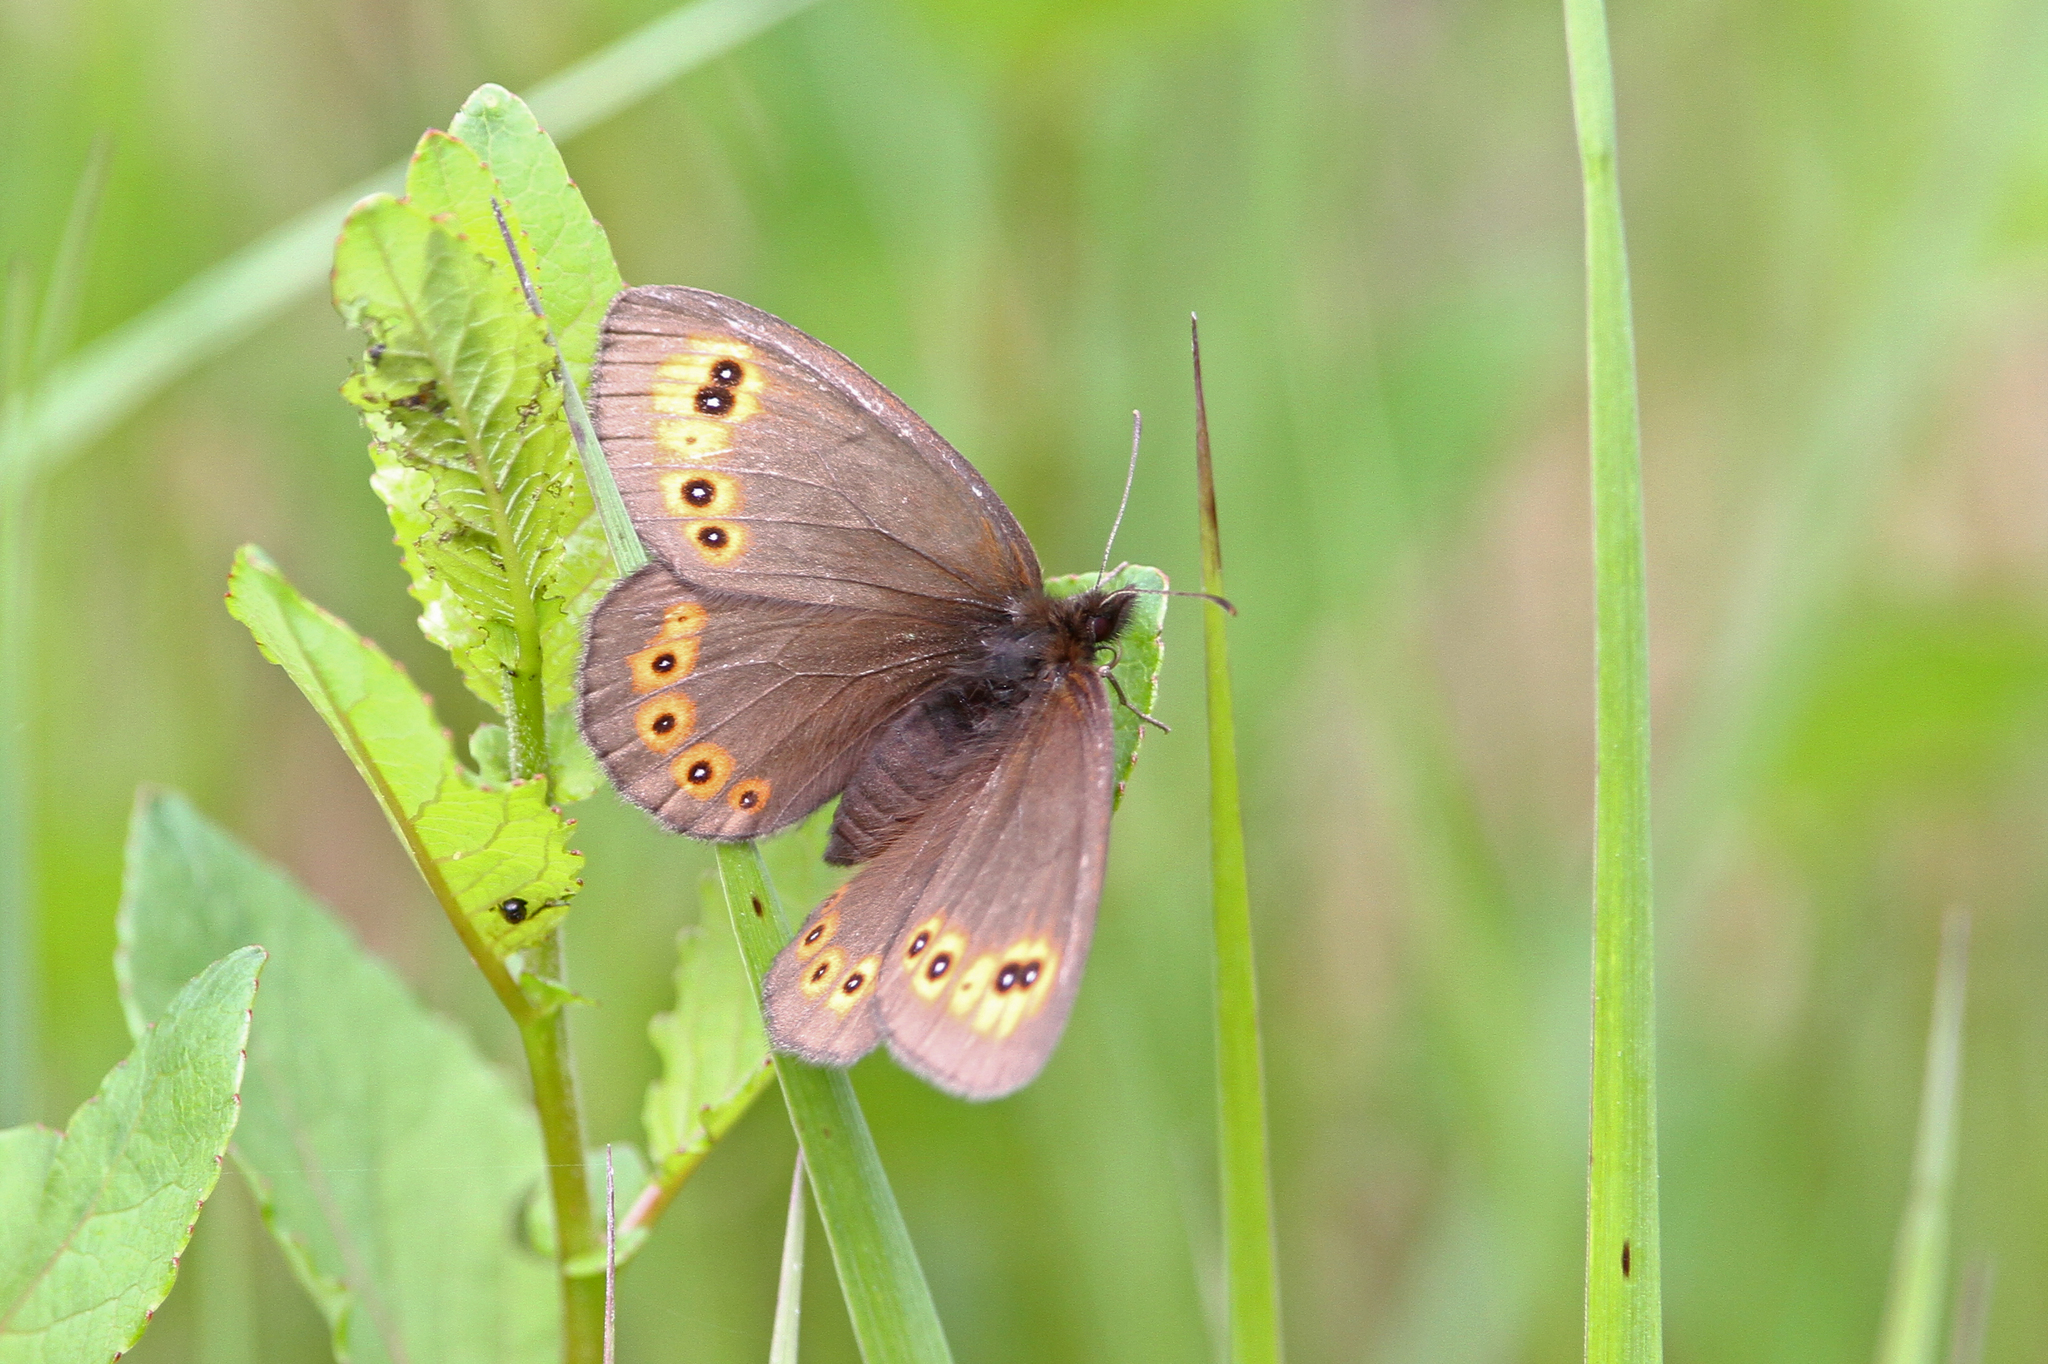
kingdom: Animalia
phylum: Arthropoda
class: Insecta
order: Lepidoptera
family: Nymphalidae
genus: Erebia
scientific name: Erebia medusa
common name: Woodland ringlet
